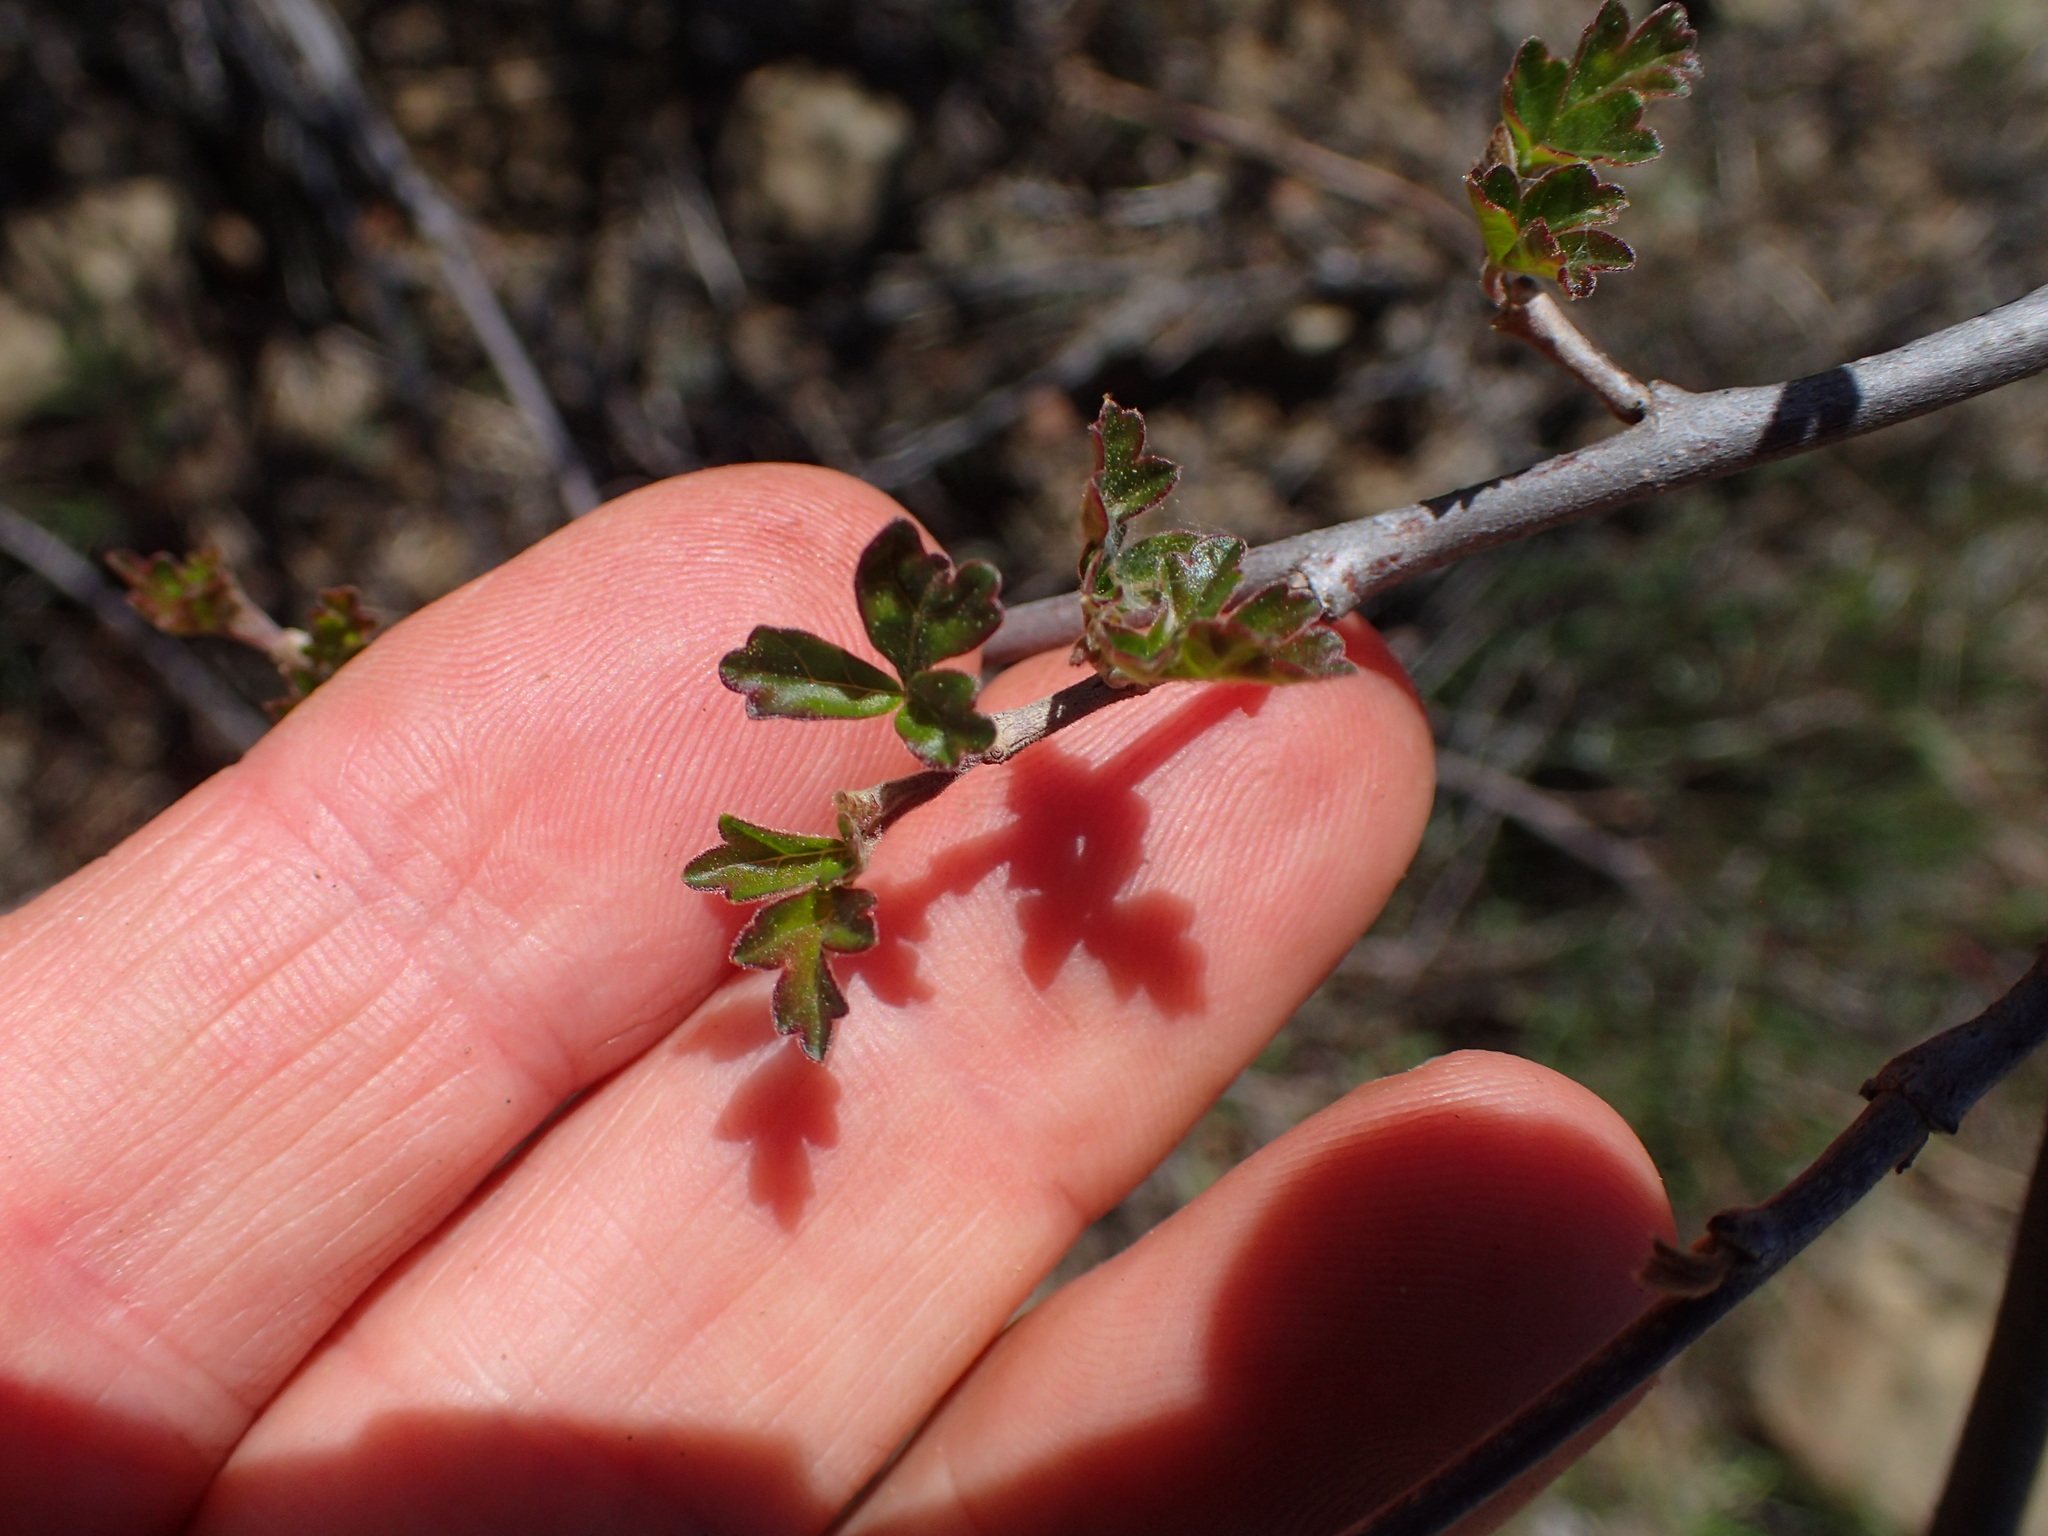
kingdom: Plantae
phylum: Tracheophyta
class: Magnoliopsida
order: Sapindales
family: Anacardiaceae
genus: Rhus
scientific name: Rhus aromatica
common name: Aromatic sumac
